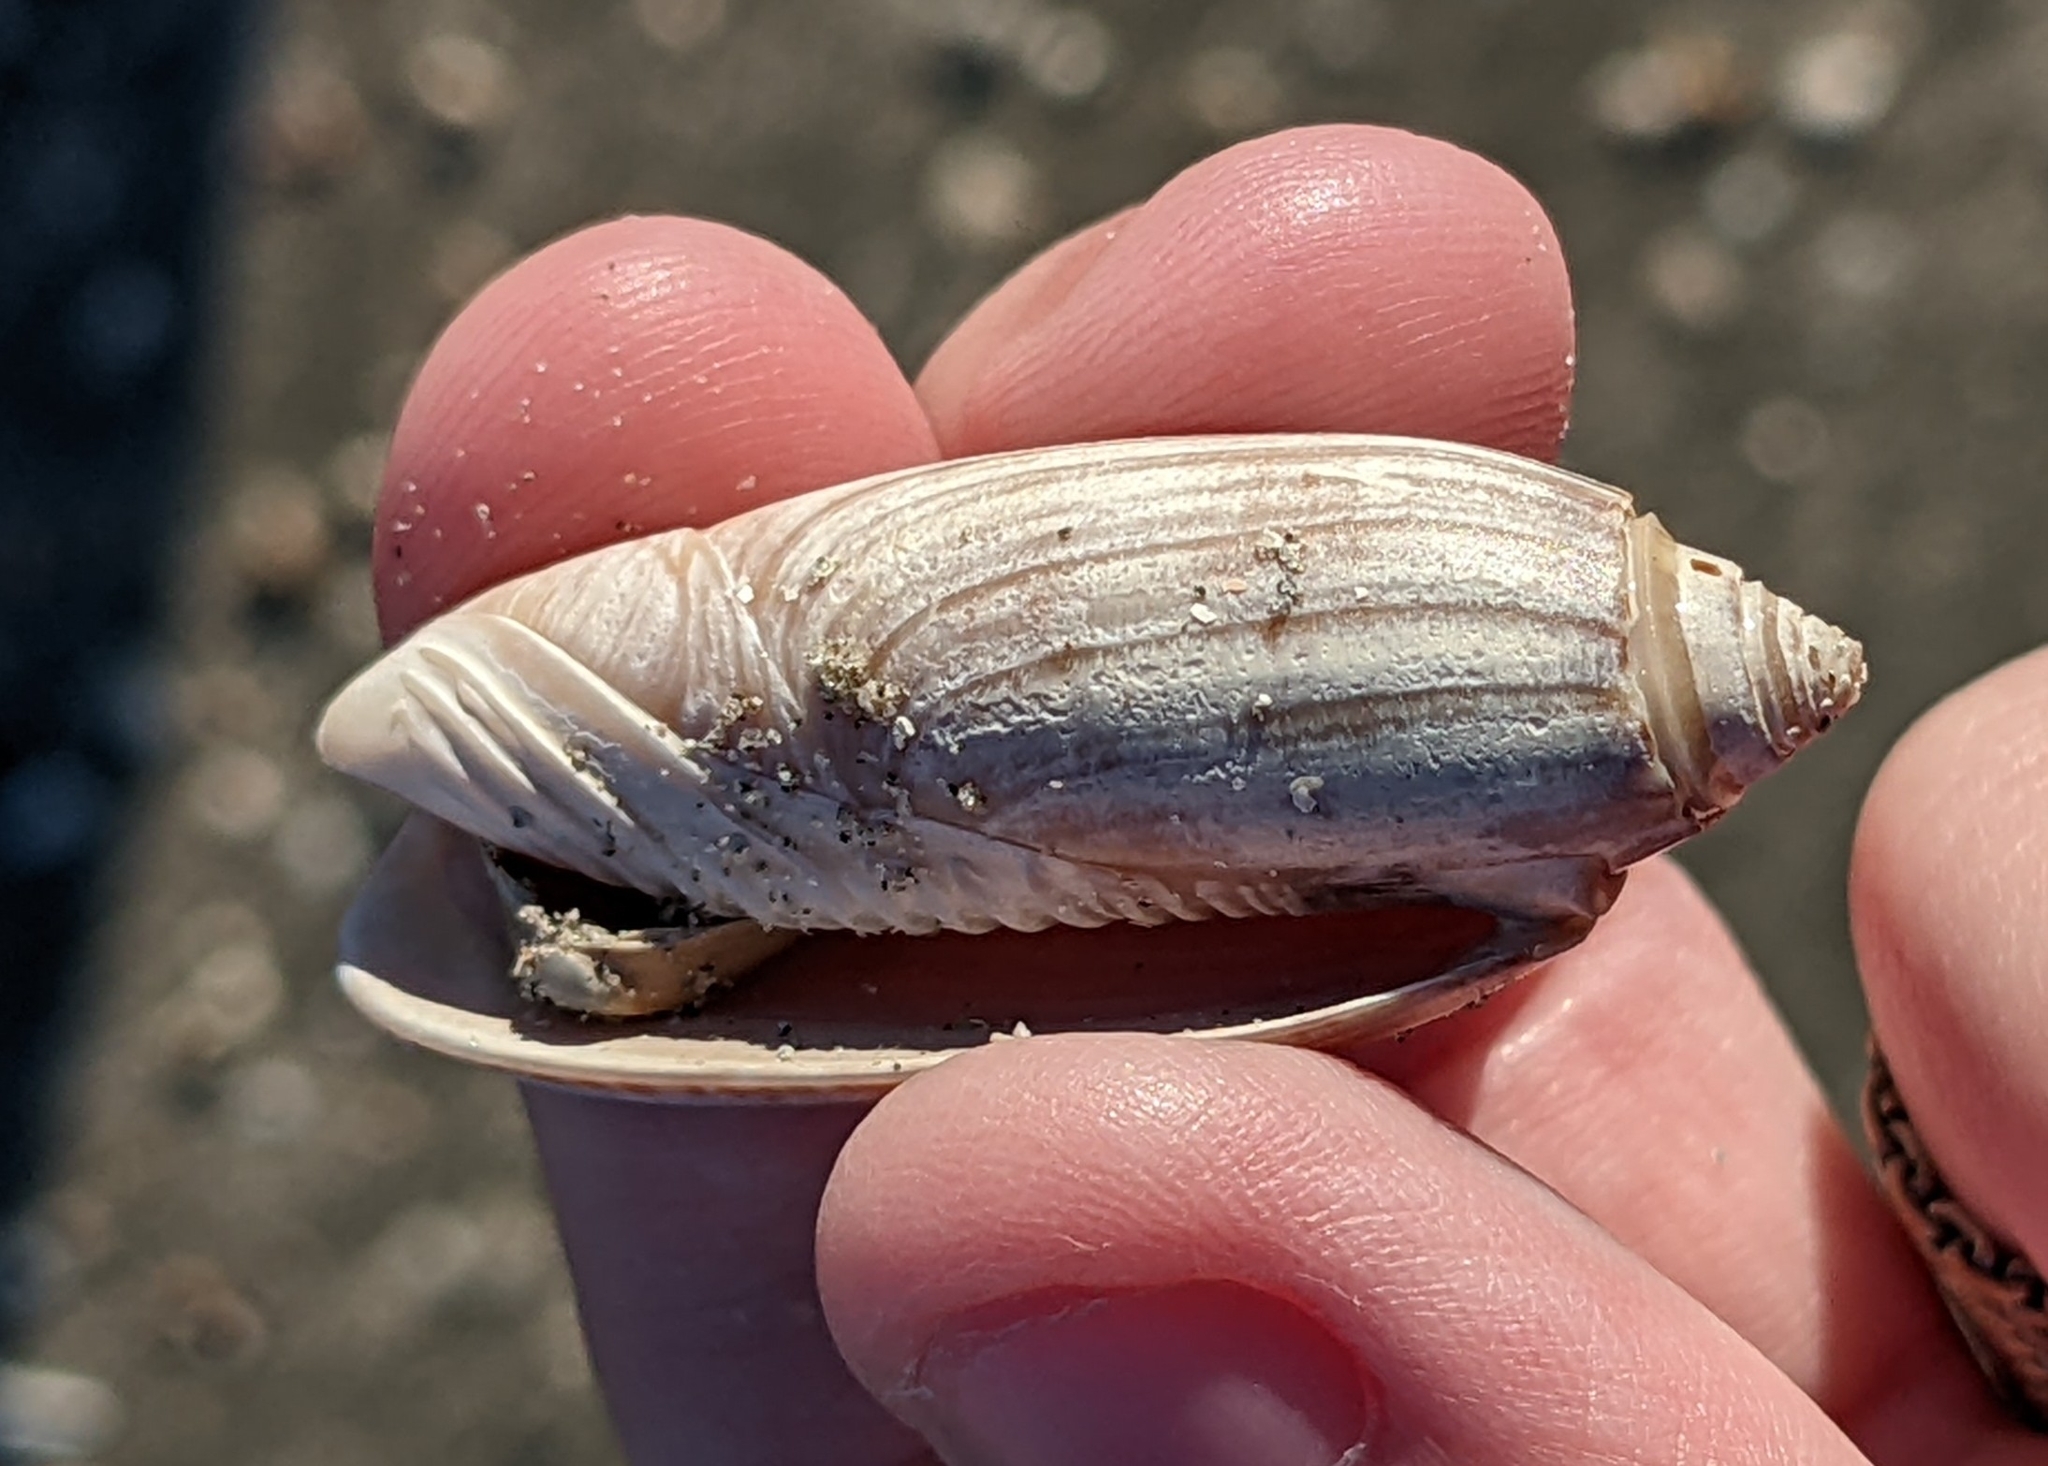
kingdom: Animalia
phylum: Mollusca
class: Gastropoda
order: Neogastropoda
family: Olividae
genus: Oliva
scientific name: Oliva sayana
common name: Lettered olive
